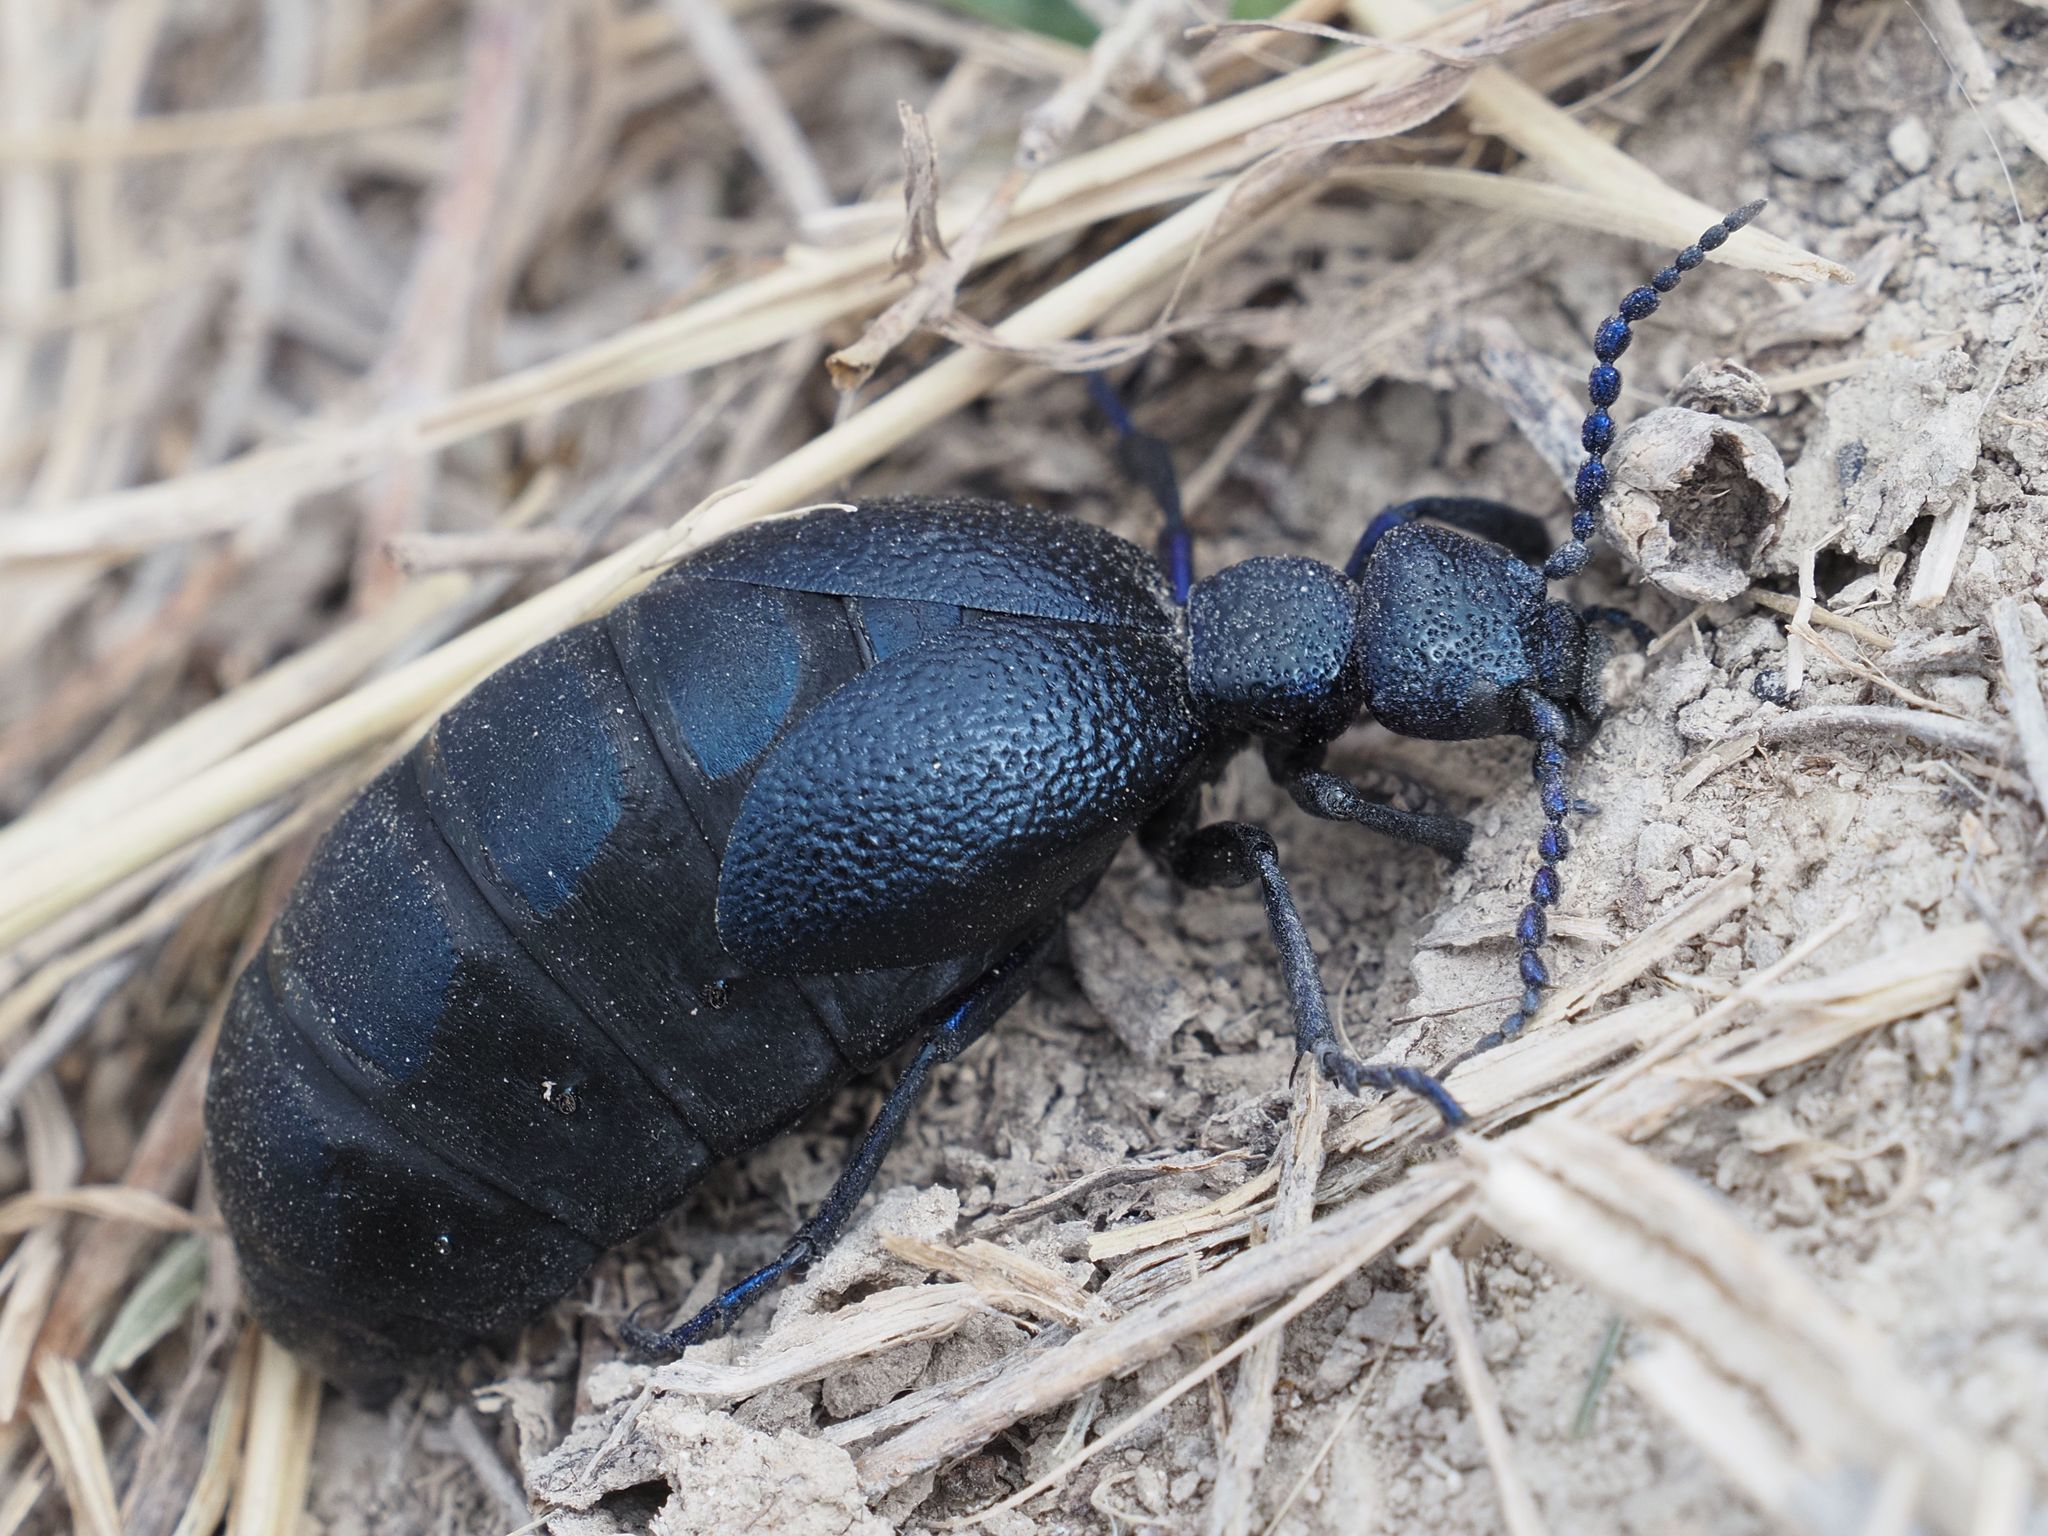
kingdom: Animalia
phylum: Arthropoda
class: Insecta
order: Coleoptera
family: Meloidae
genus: Meloe
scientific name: Meloe proscarabaeus
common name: Black oil-beetle
